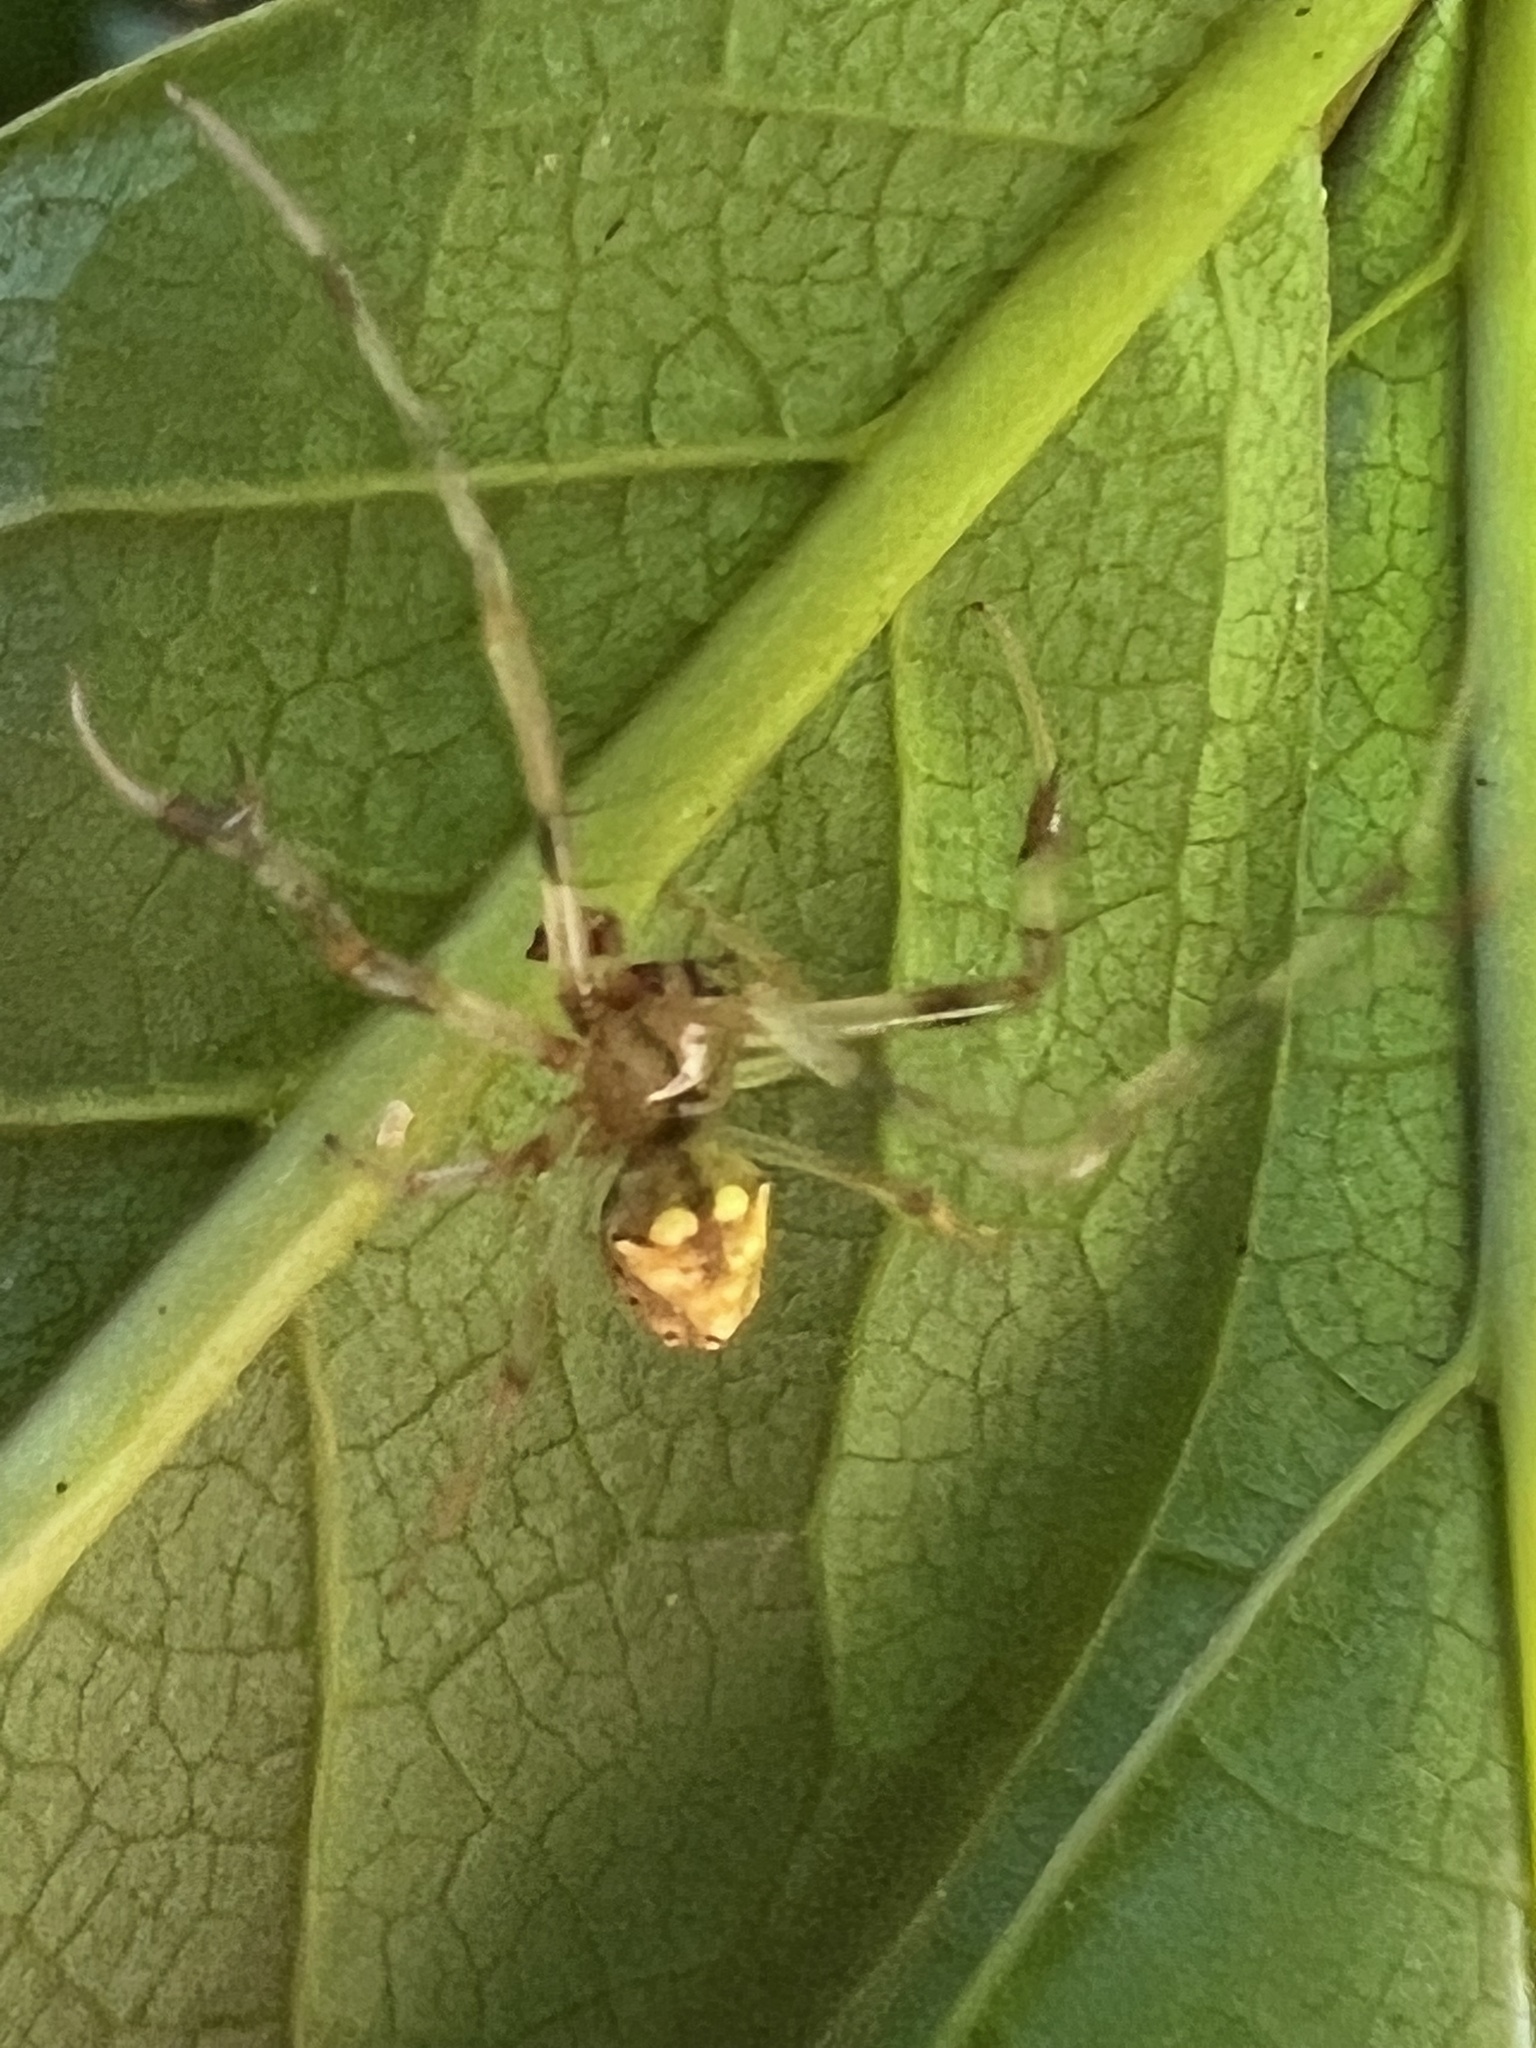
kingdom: Animalia
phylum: Arthropoda
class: Arachnida
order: Araneae
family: Araneidae
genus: Verrucosa
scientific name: Verrucosa arenata
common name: Orb weavers
